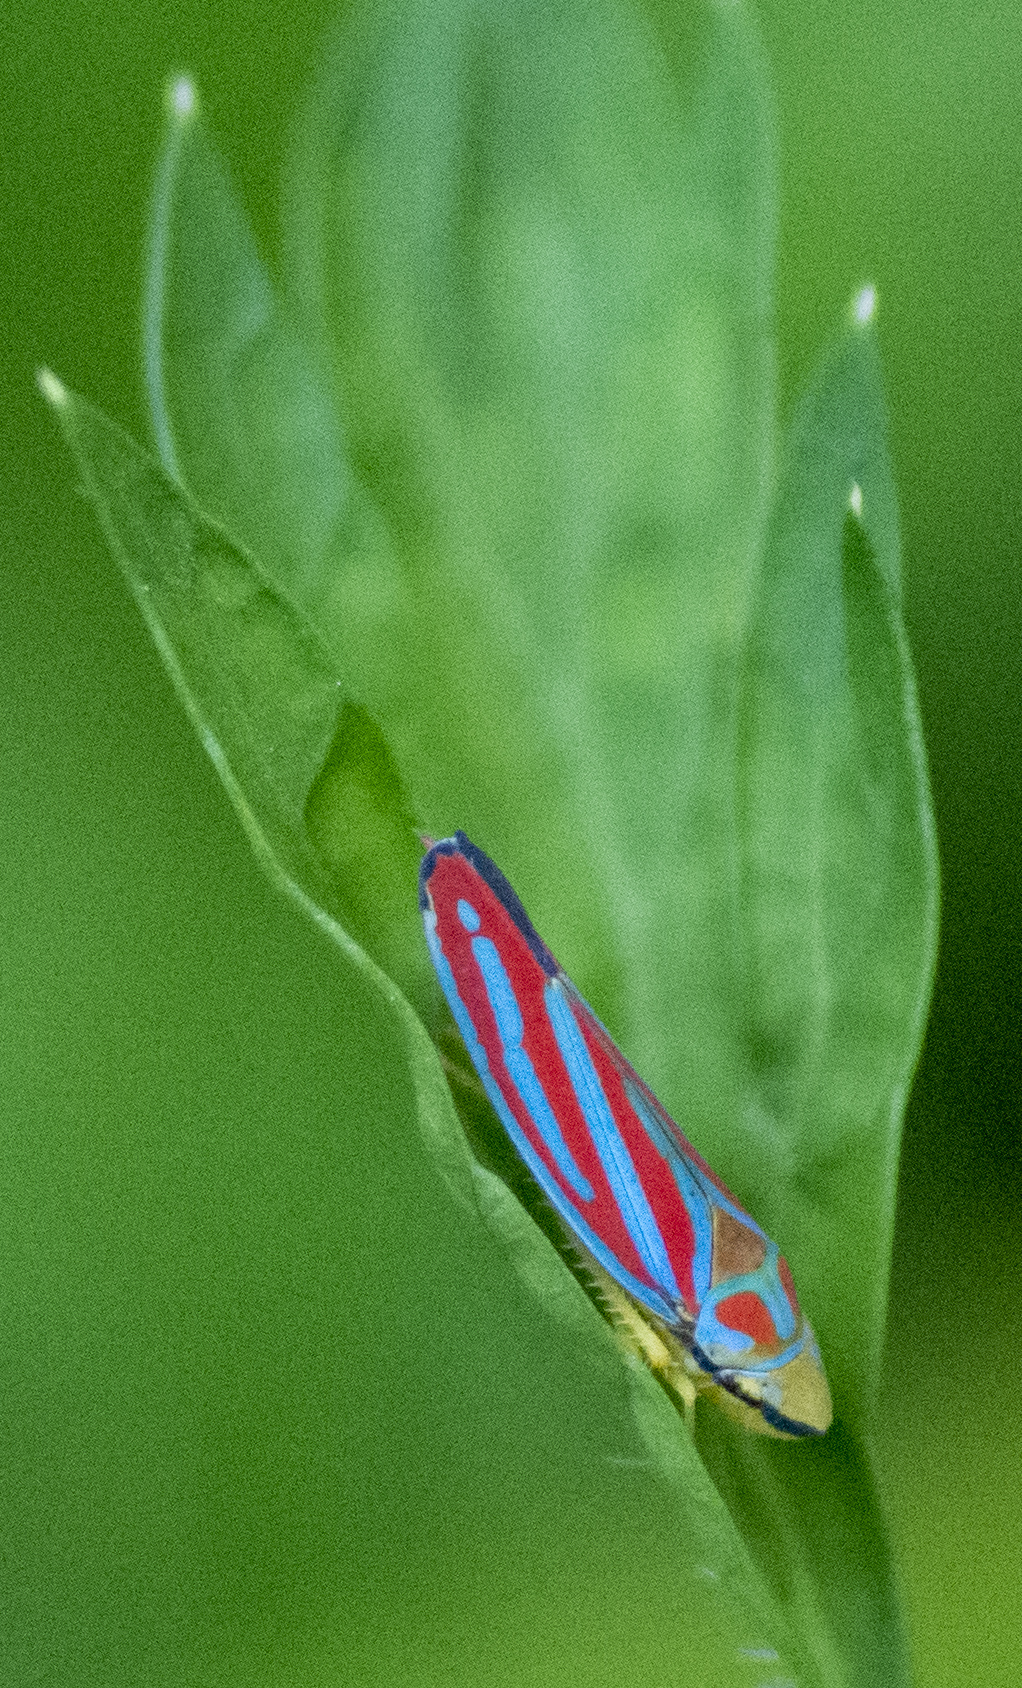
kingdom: Animalia
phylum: Arthropoda
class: Insecta
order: Hemiptera
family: Cicadellidae
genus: Graphocephala
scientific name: Graphocephala coccinea
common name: Candy-striped leafhopper
